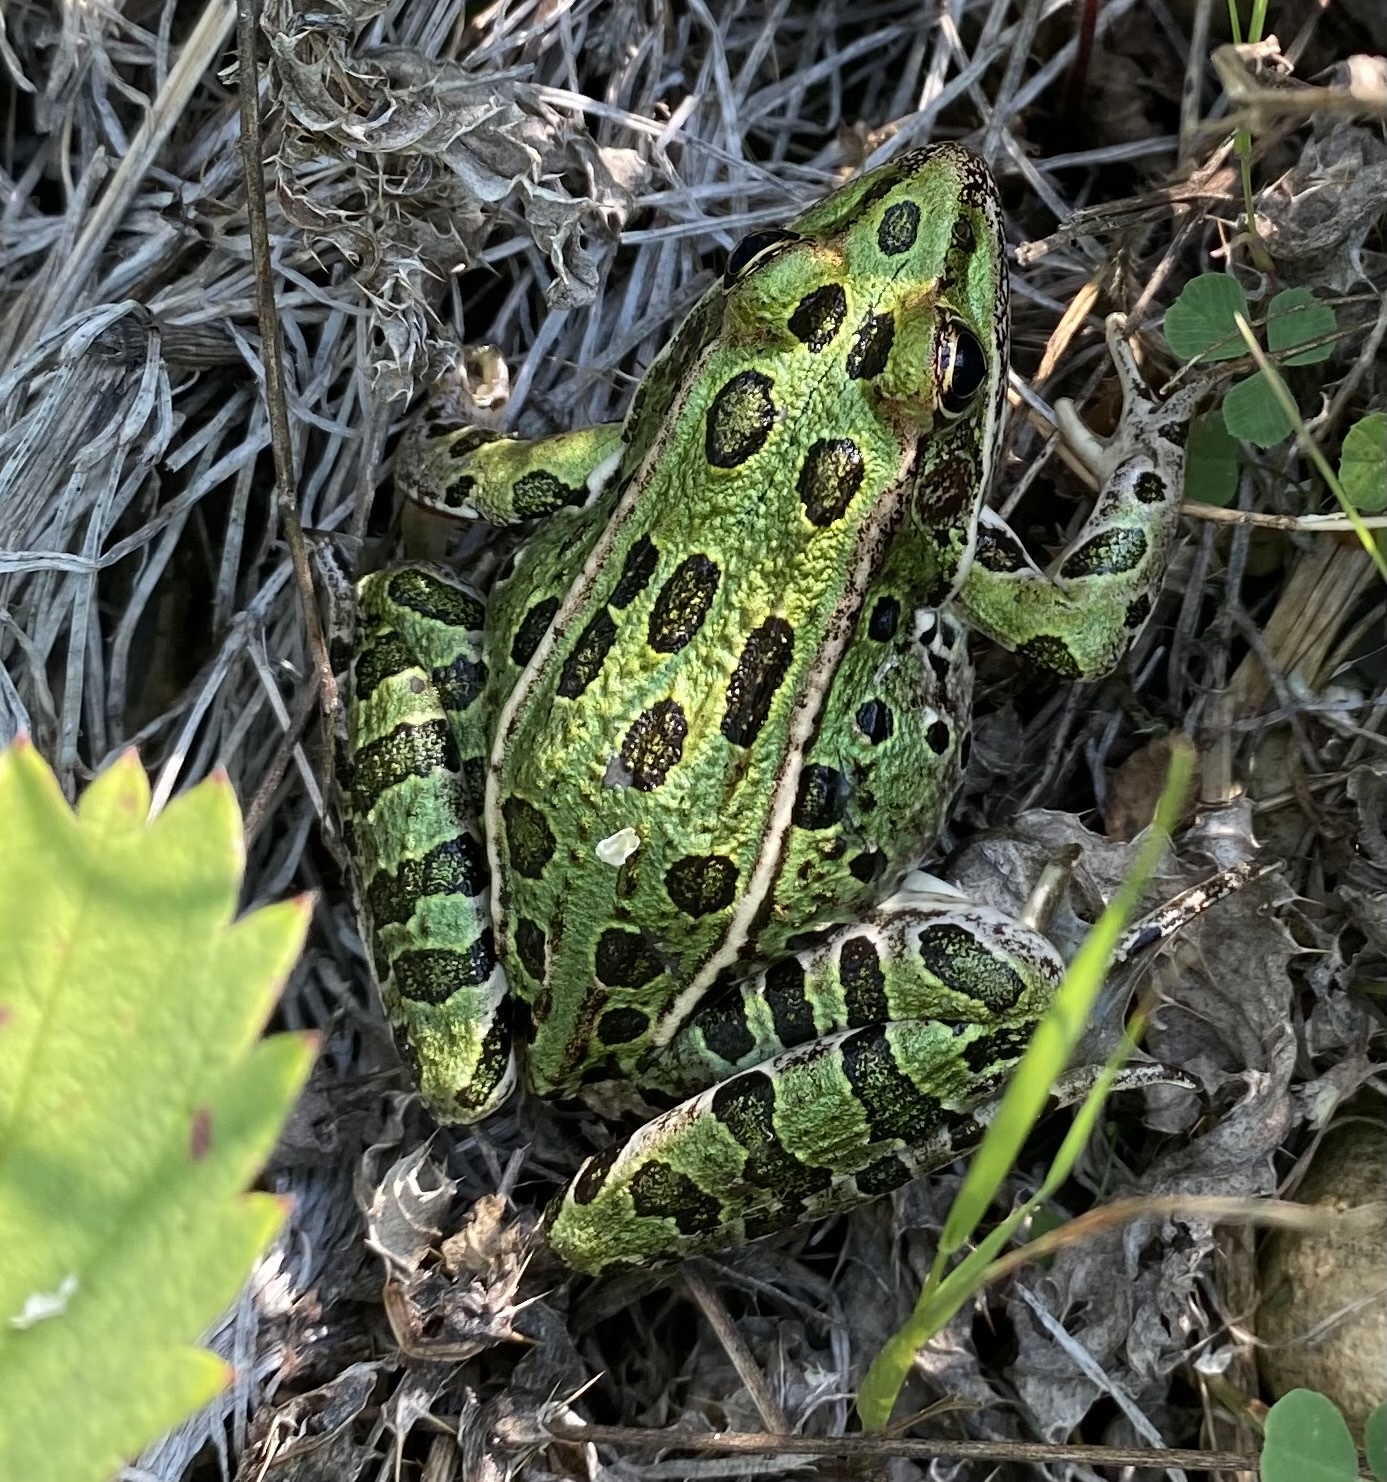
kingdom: Animalia
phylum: Chordata
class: Amphibia
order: Anura
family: Ranidae
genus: Lithobates
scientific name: Lithobates pipiens
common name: Northern leopard frog
